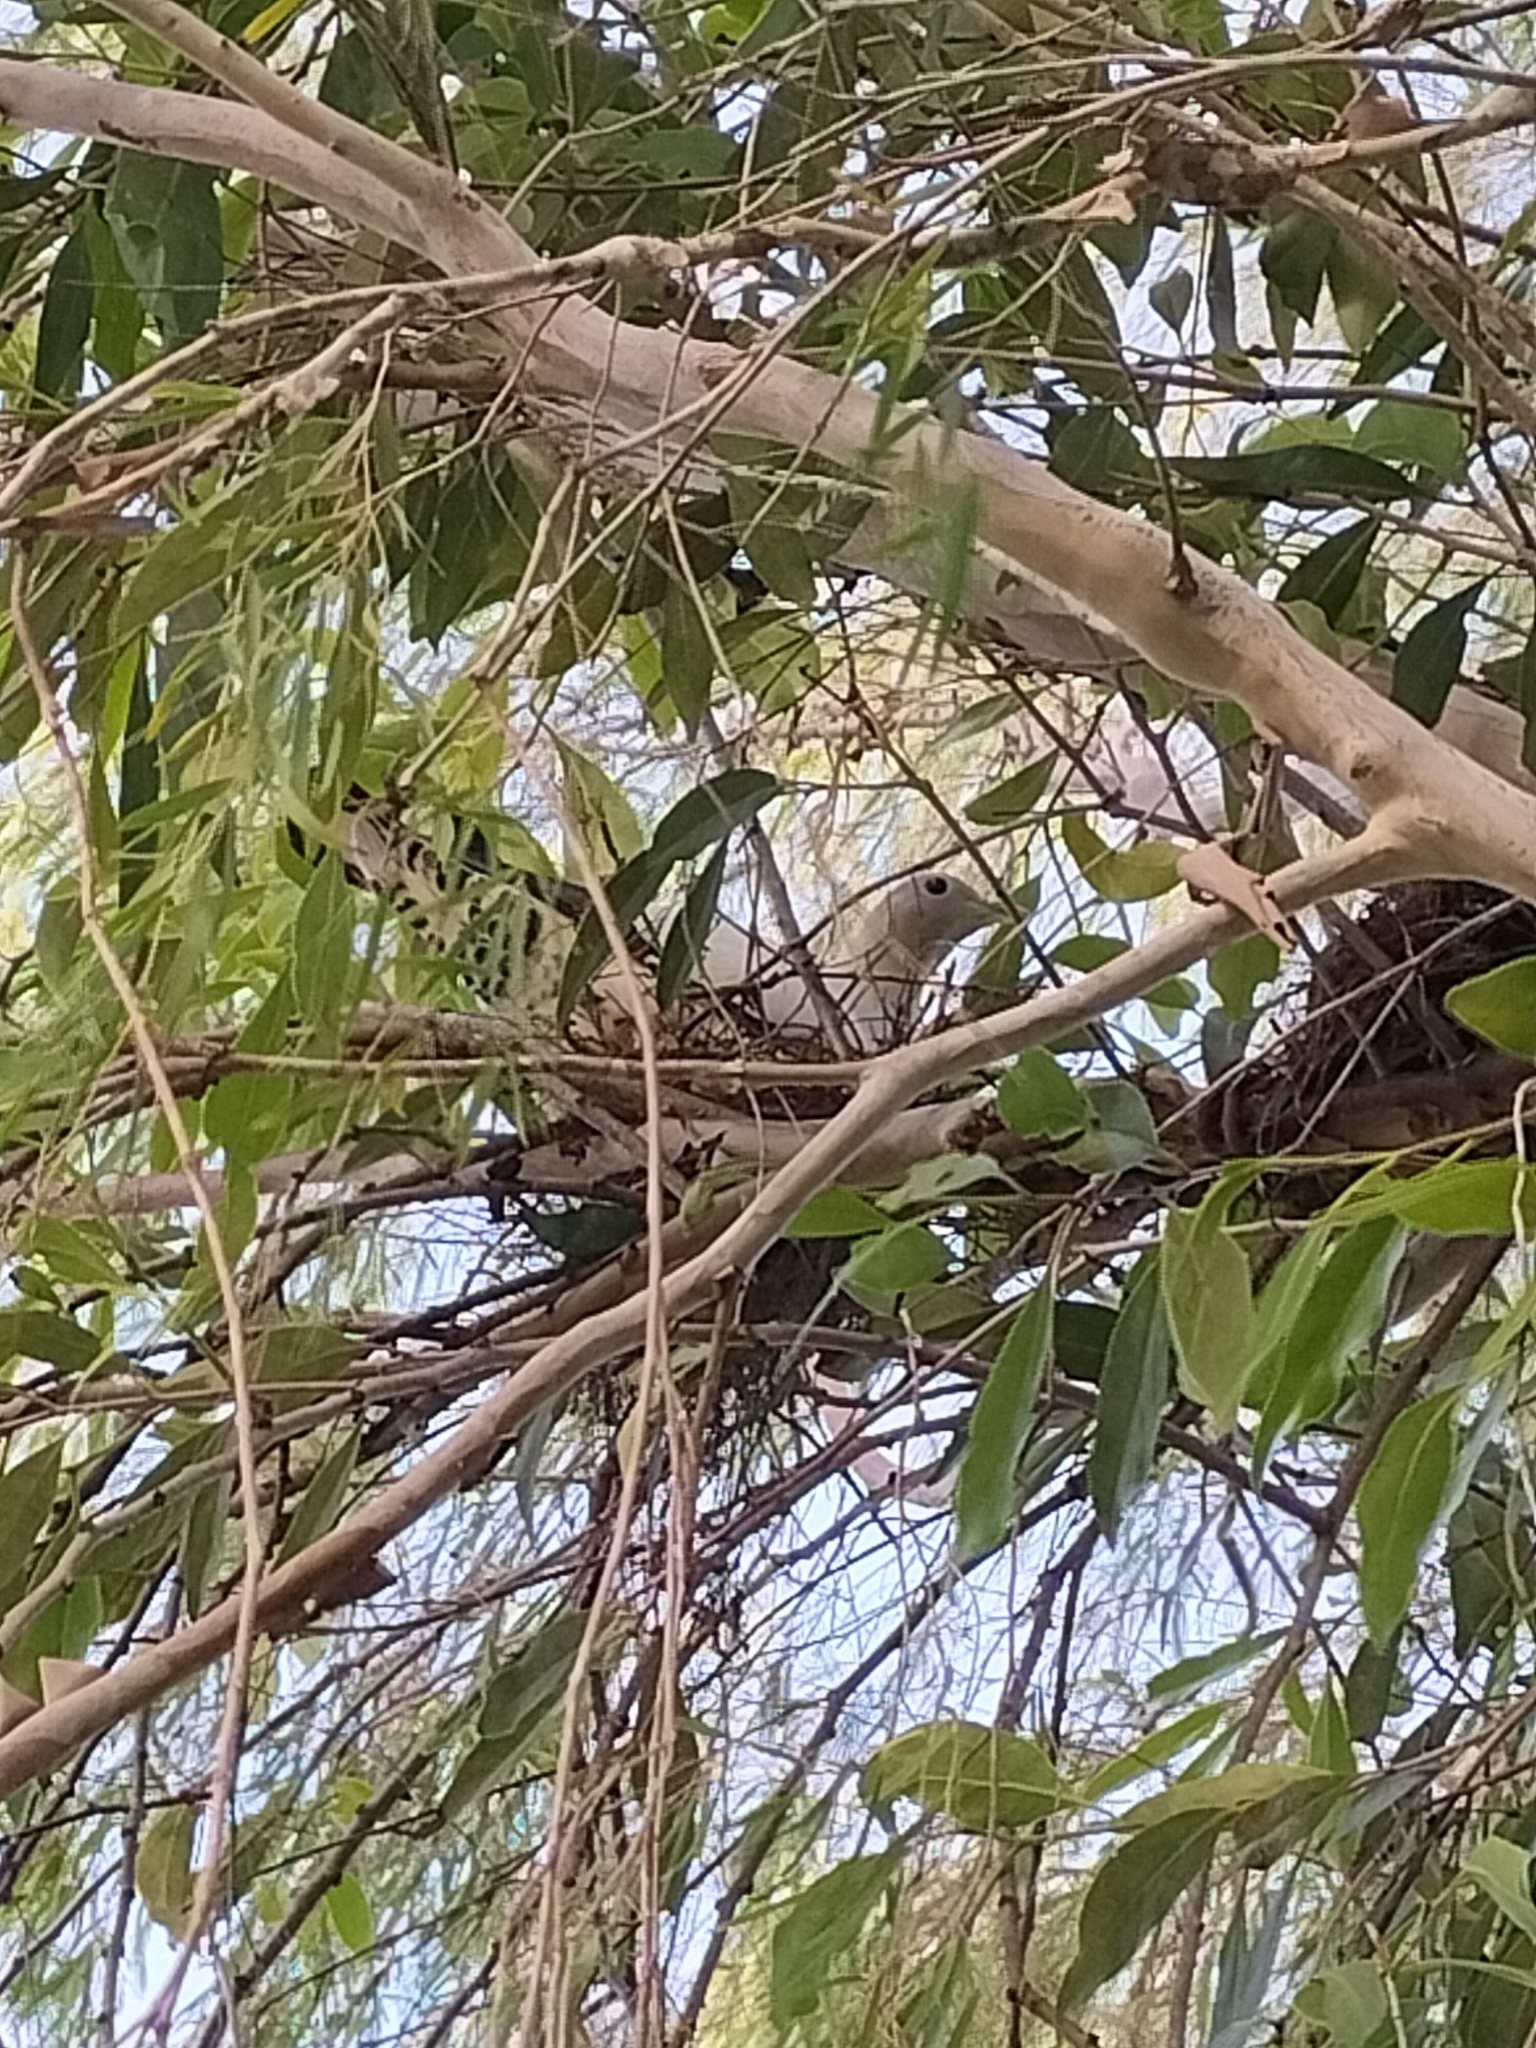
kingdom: Animalia
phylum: Chordata
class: Aves
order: Columbiformes
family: Columbidae
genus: Ducula
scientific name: Ducula spilorrhoa
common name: Torresian imperial pigeon
